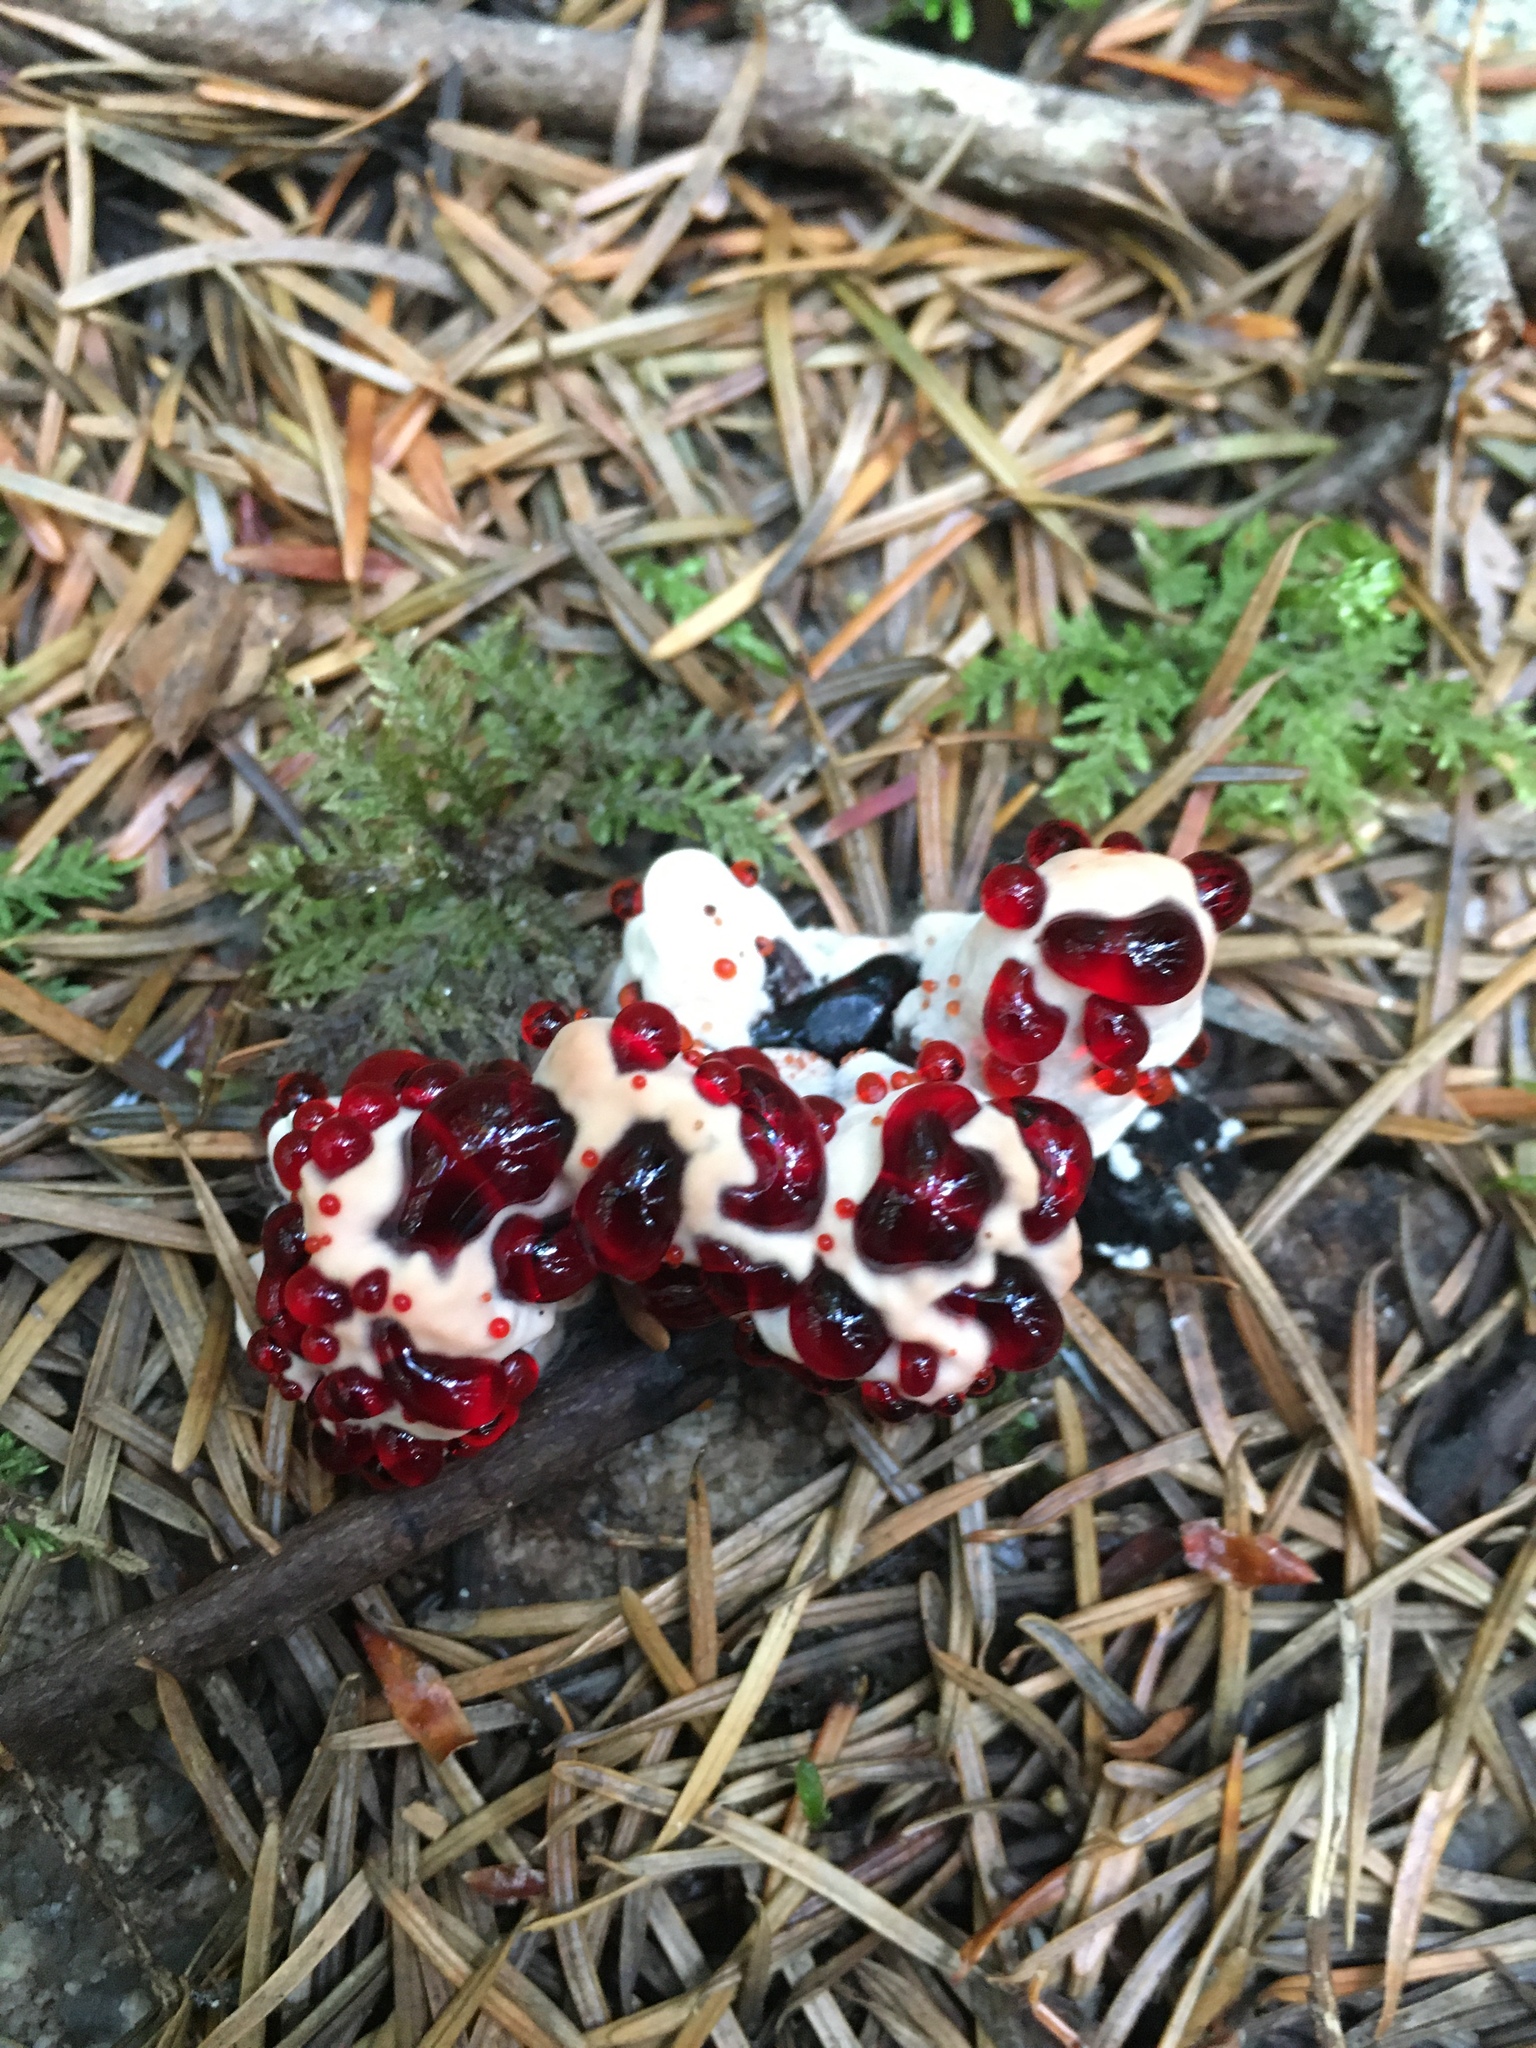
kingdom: Fungi
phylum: Basidiomycota
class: Agaricomycetes
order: Thelephorales
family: Bankeraceae
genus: Hydnellum
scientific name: Hydnellum peckii
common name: Devil's tooth
